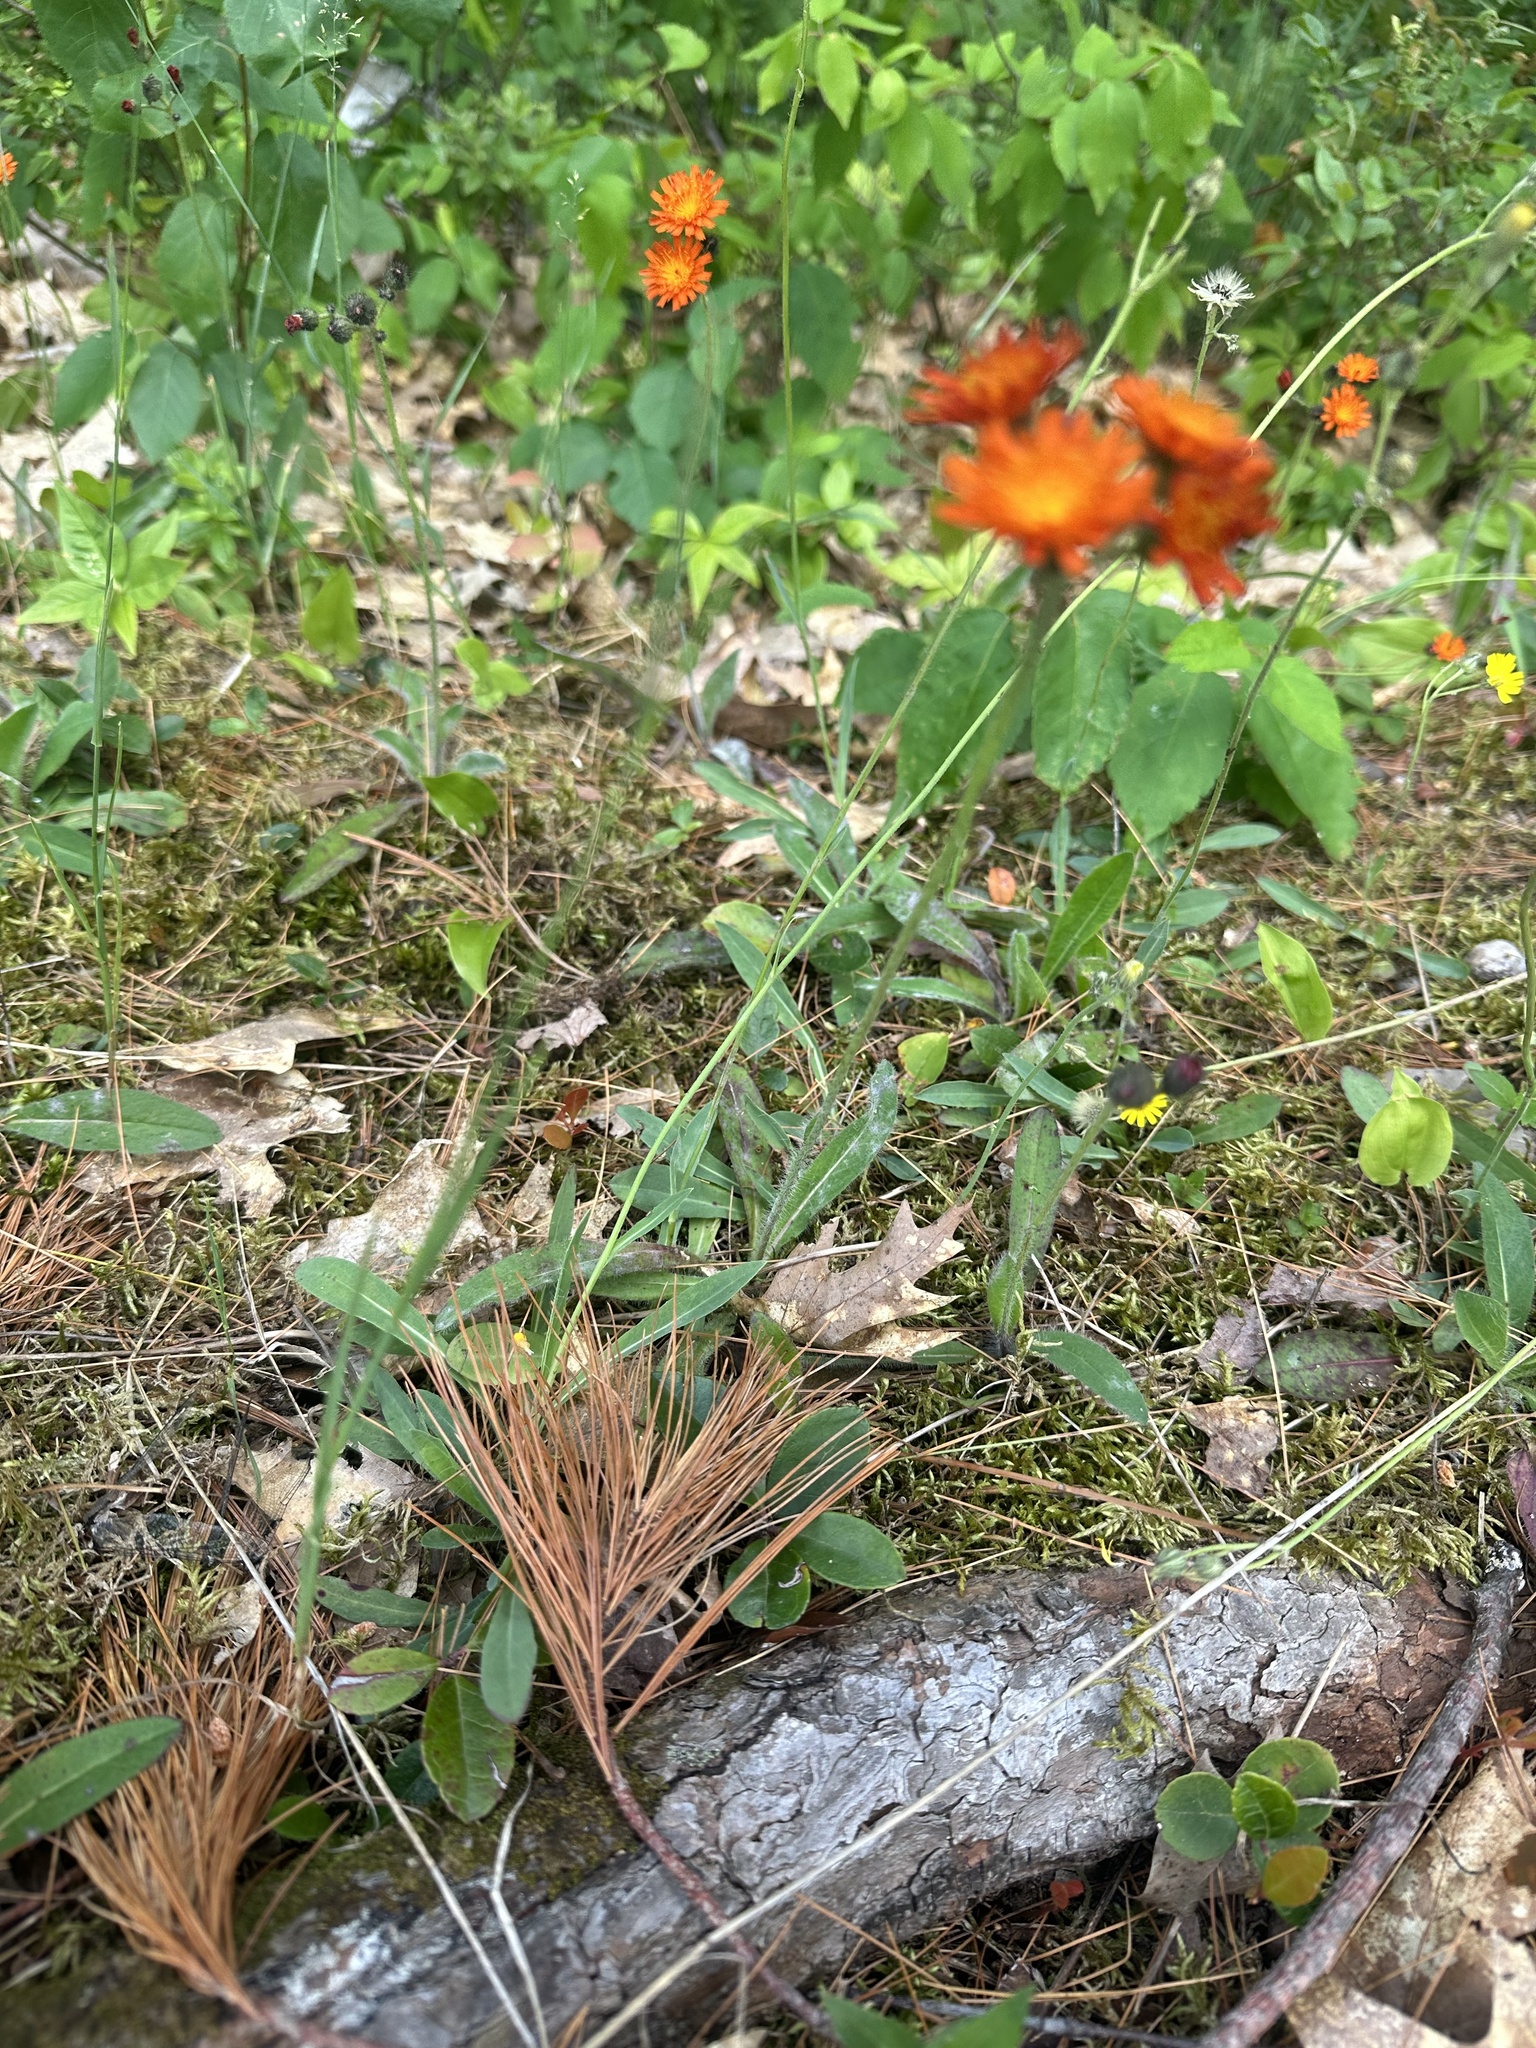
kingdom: Plantae
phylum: Tracheophyta
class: Magnoliopsida
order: Asterales
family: Asteraceae
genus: Pilosella
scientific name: Pilosella aurantiaca
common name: Fox-and-cubs
